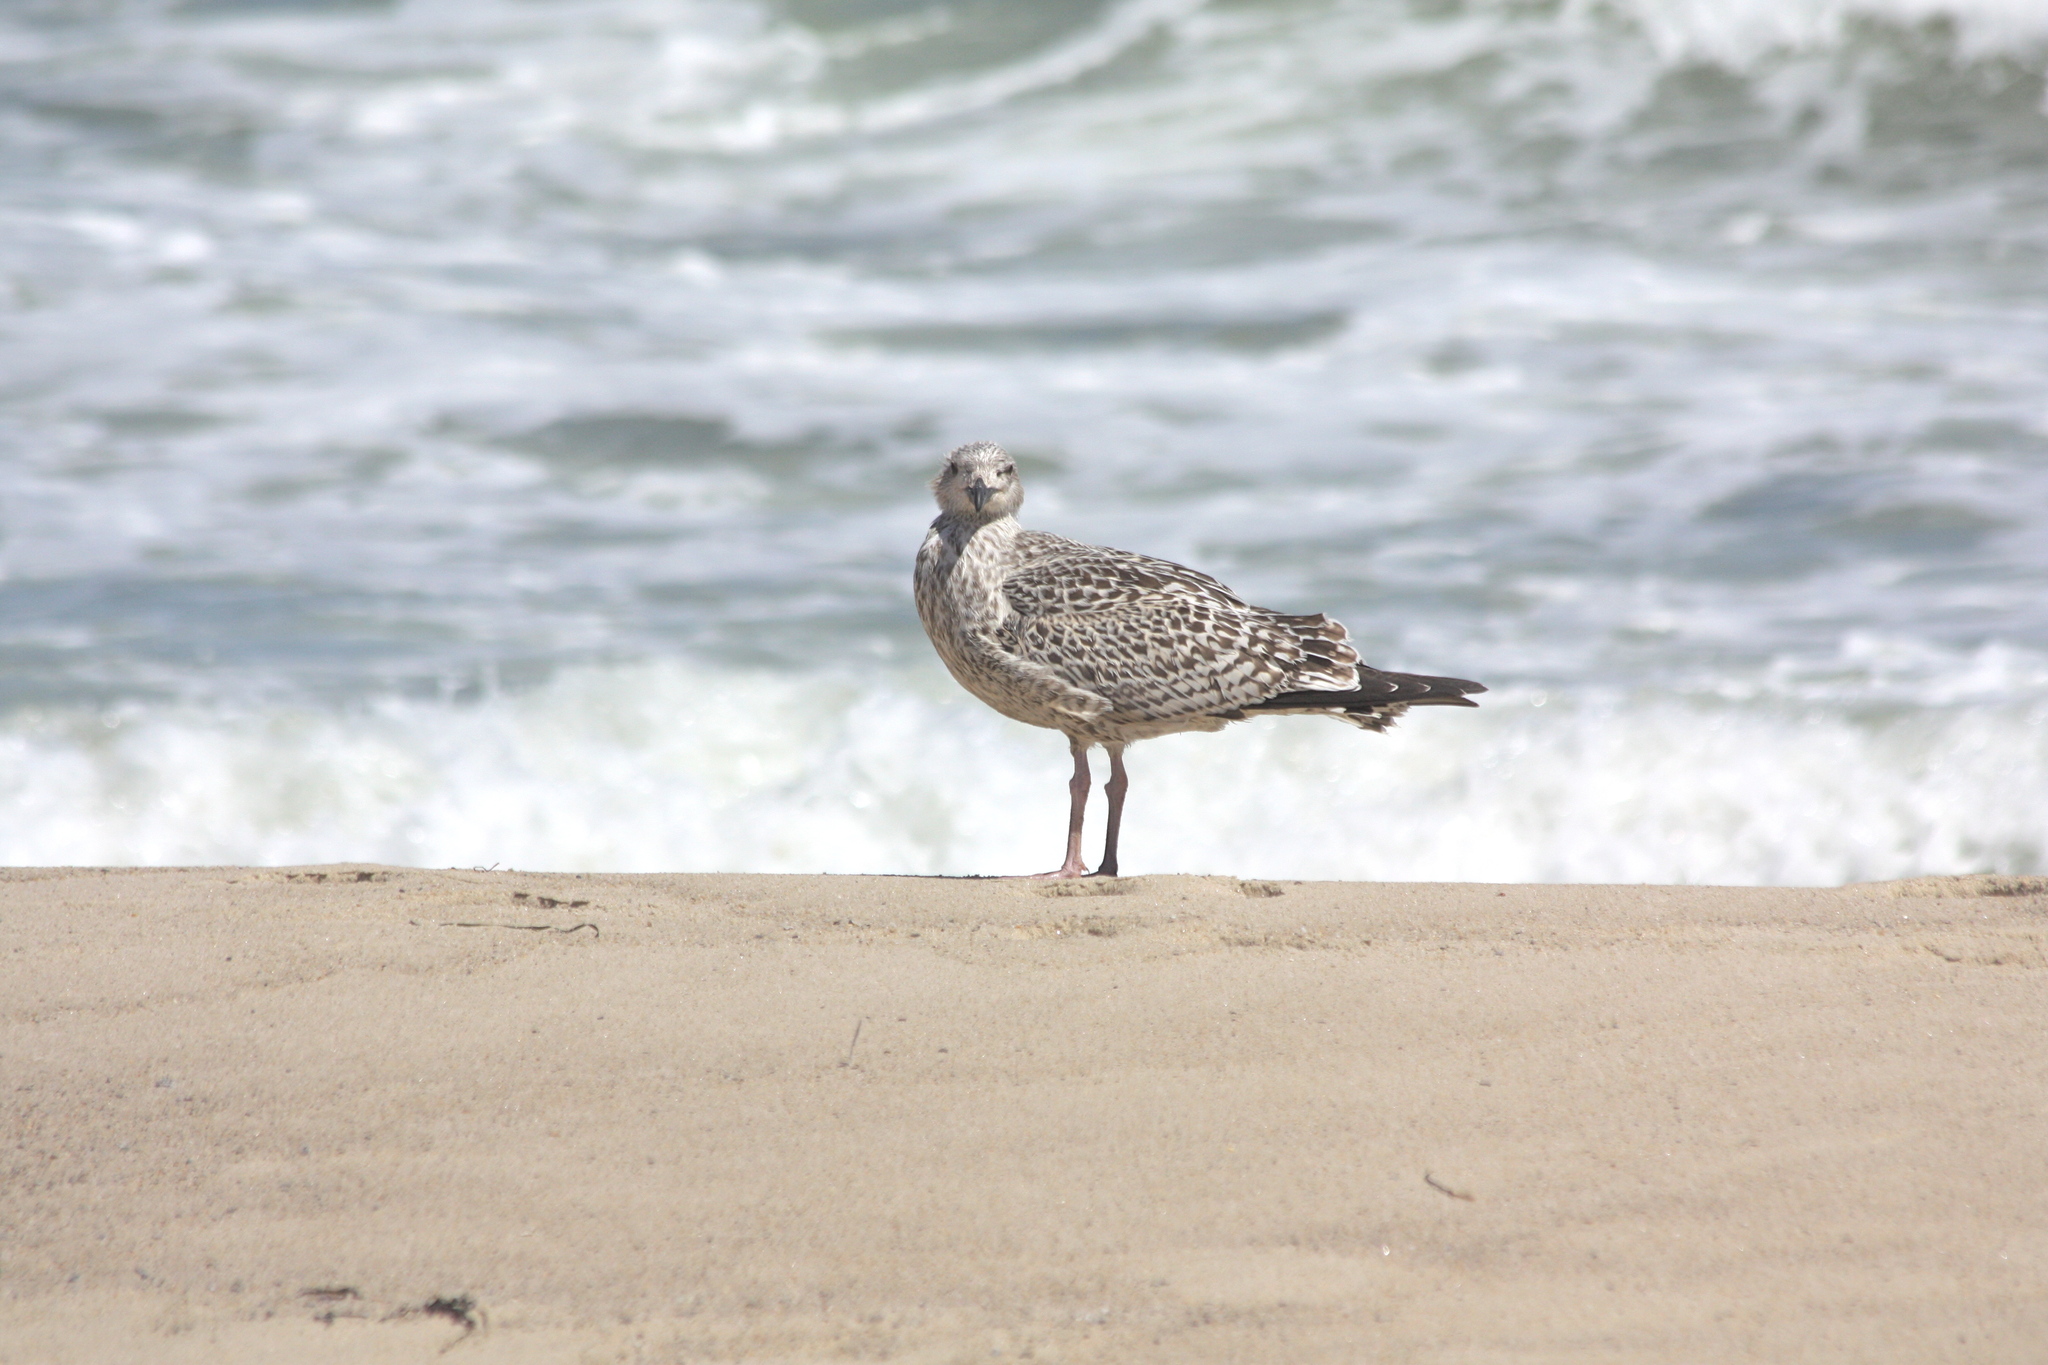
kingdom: Animalia
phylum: Chordata
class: Aves
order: Charadriiformes
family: Laridae
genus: Larus
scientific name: Larus marinus
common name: Great black-backed gull
